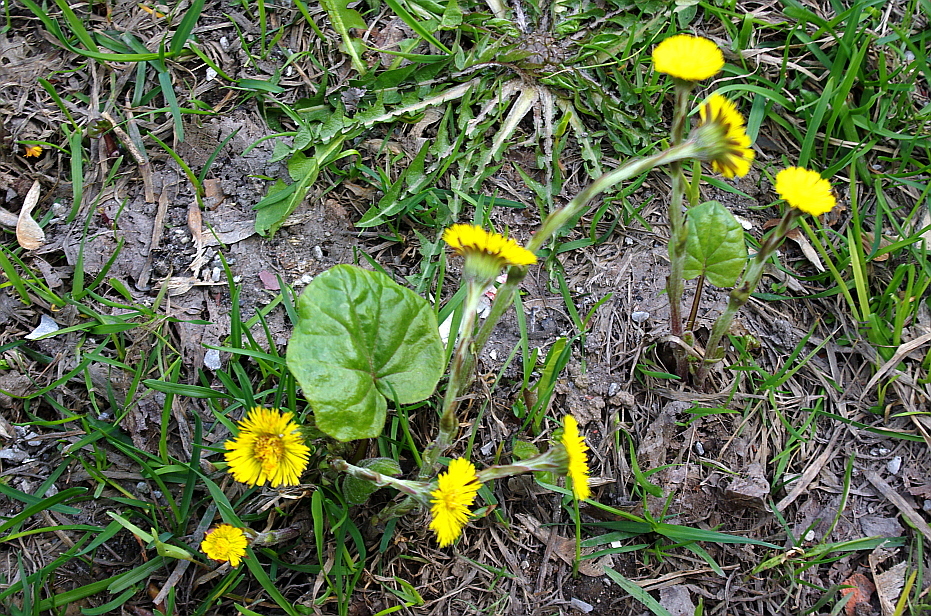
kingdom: Plantae
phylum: Tracheophyta
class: Magnoliopsida
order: Asterales
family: Asteraceae
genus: Tussilago
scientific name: Tussilago farfara
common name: Coltsfoot
